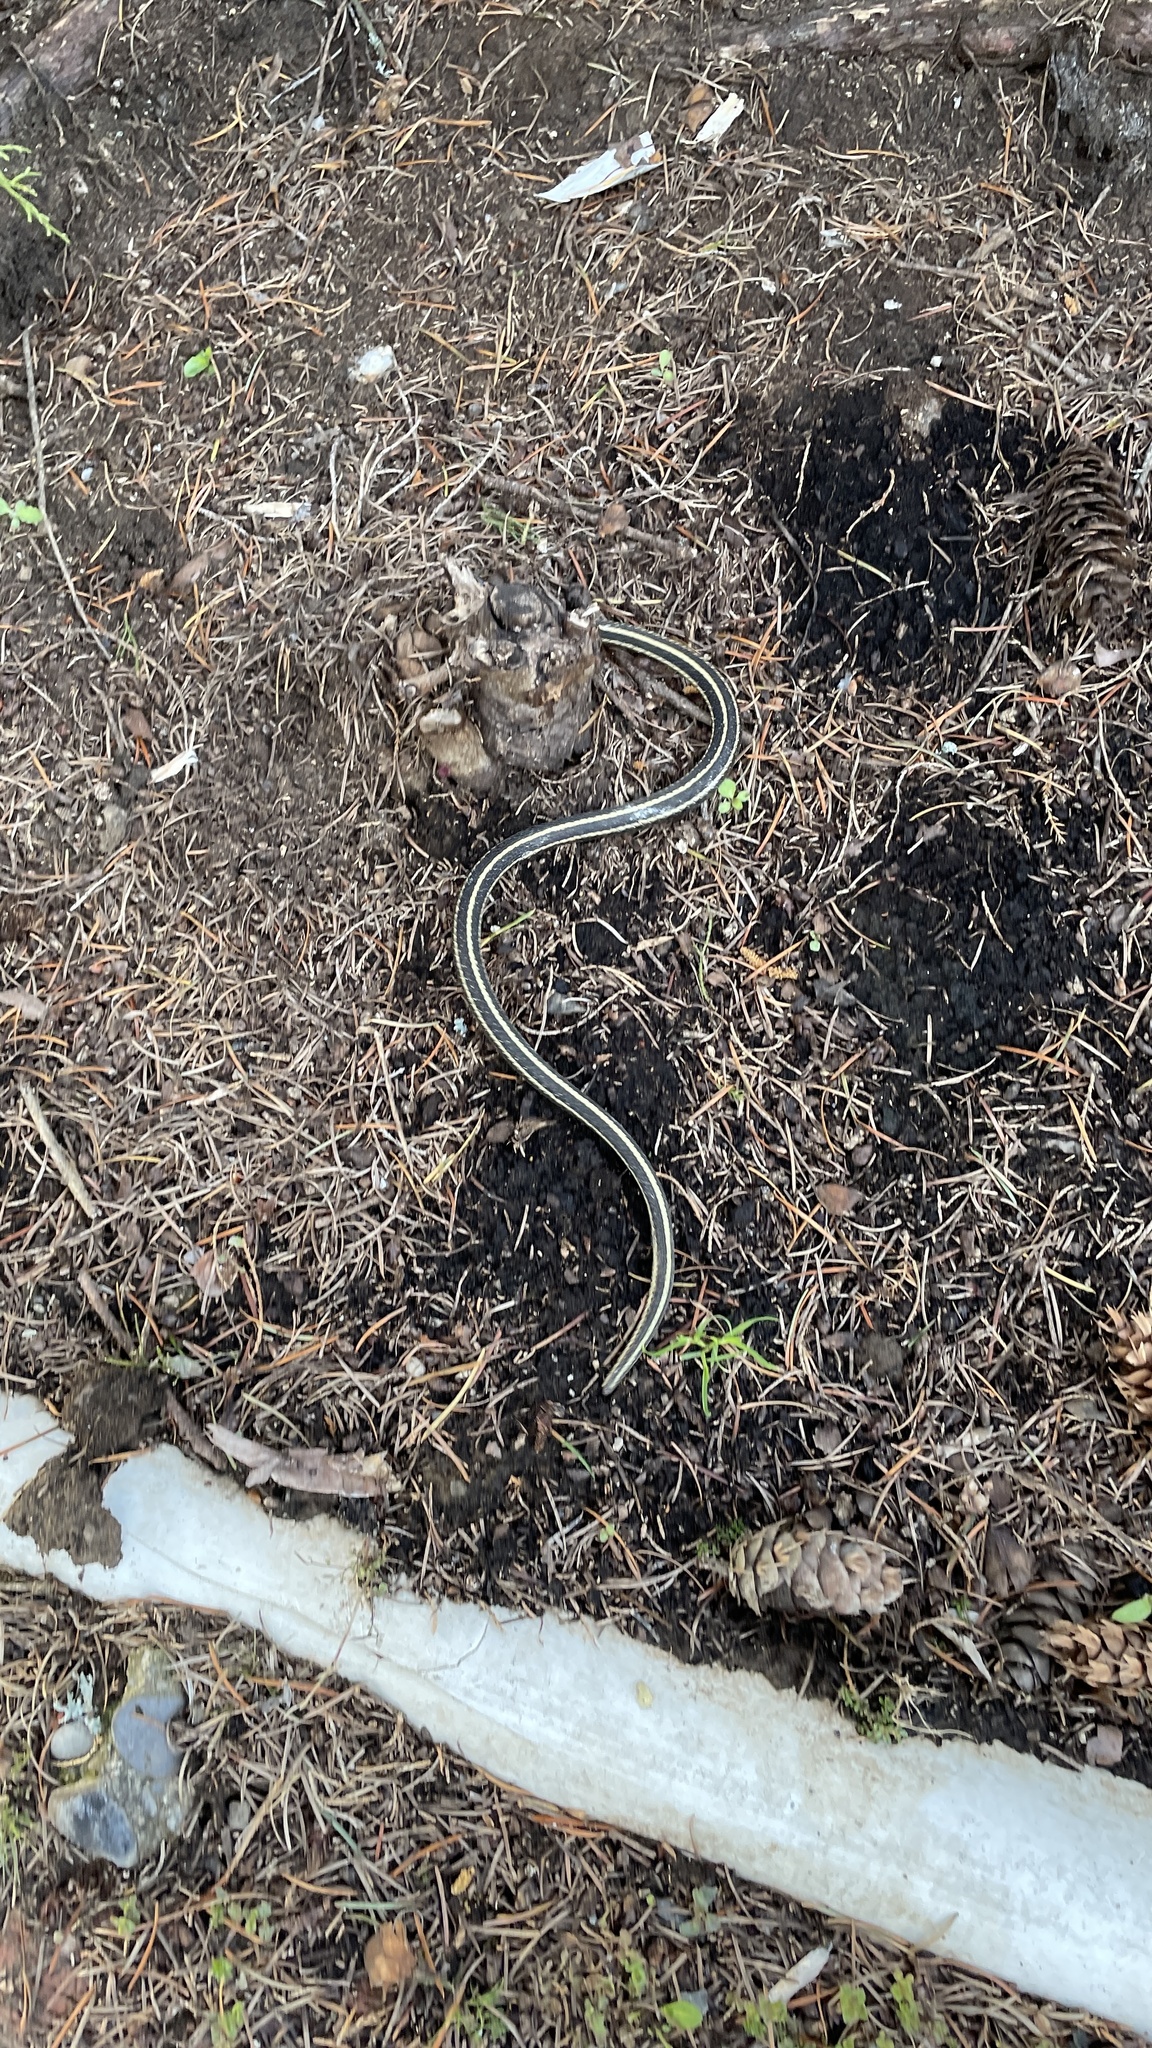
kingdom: Animalia
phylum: Chordata
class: Squamata
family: Colubridae
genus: Thamnophis
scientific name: Thamnophis ordinoides
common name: Northwestern garter snake
